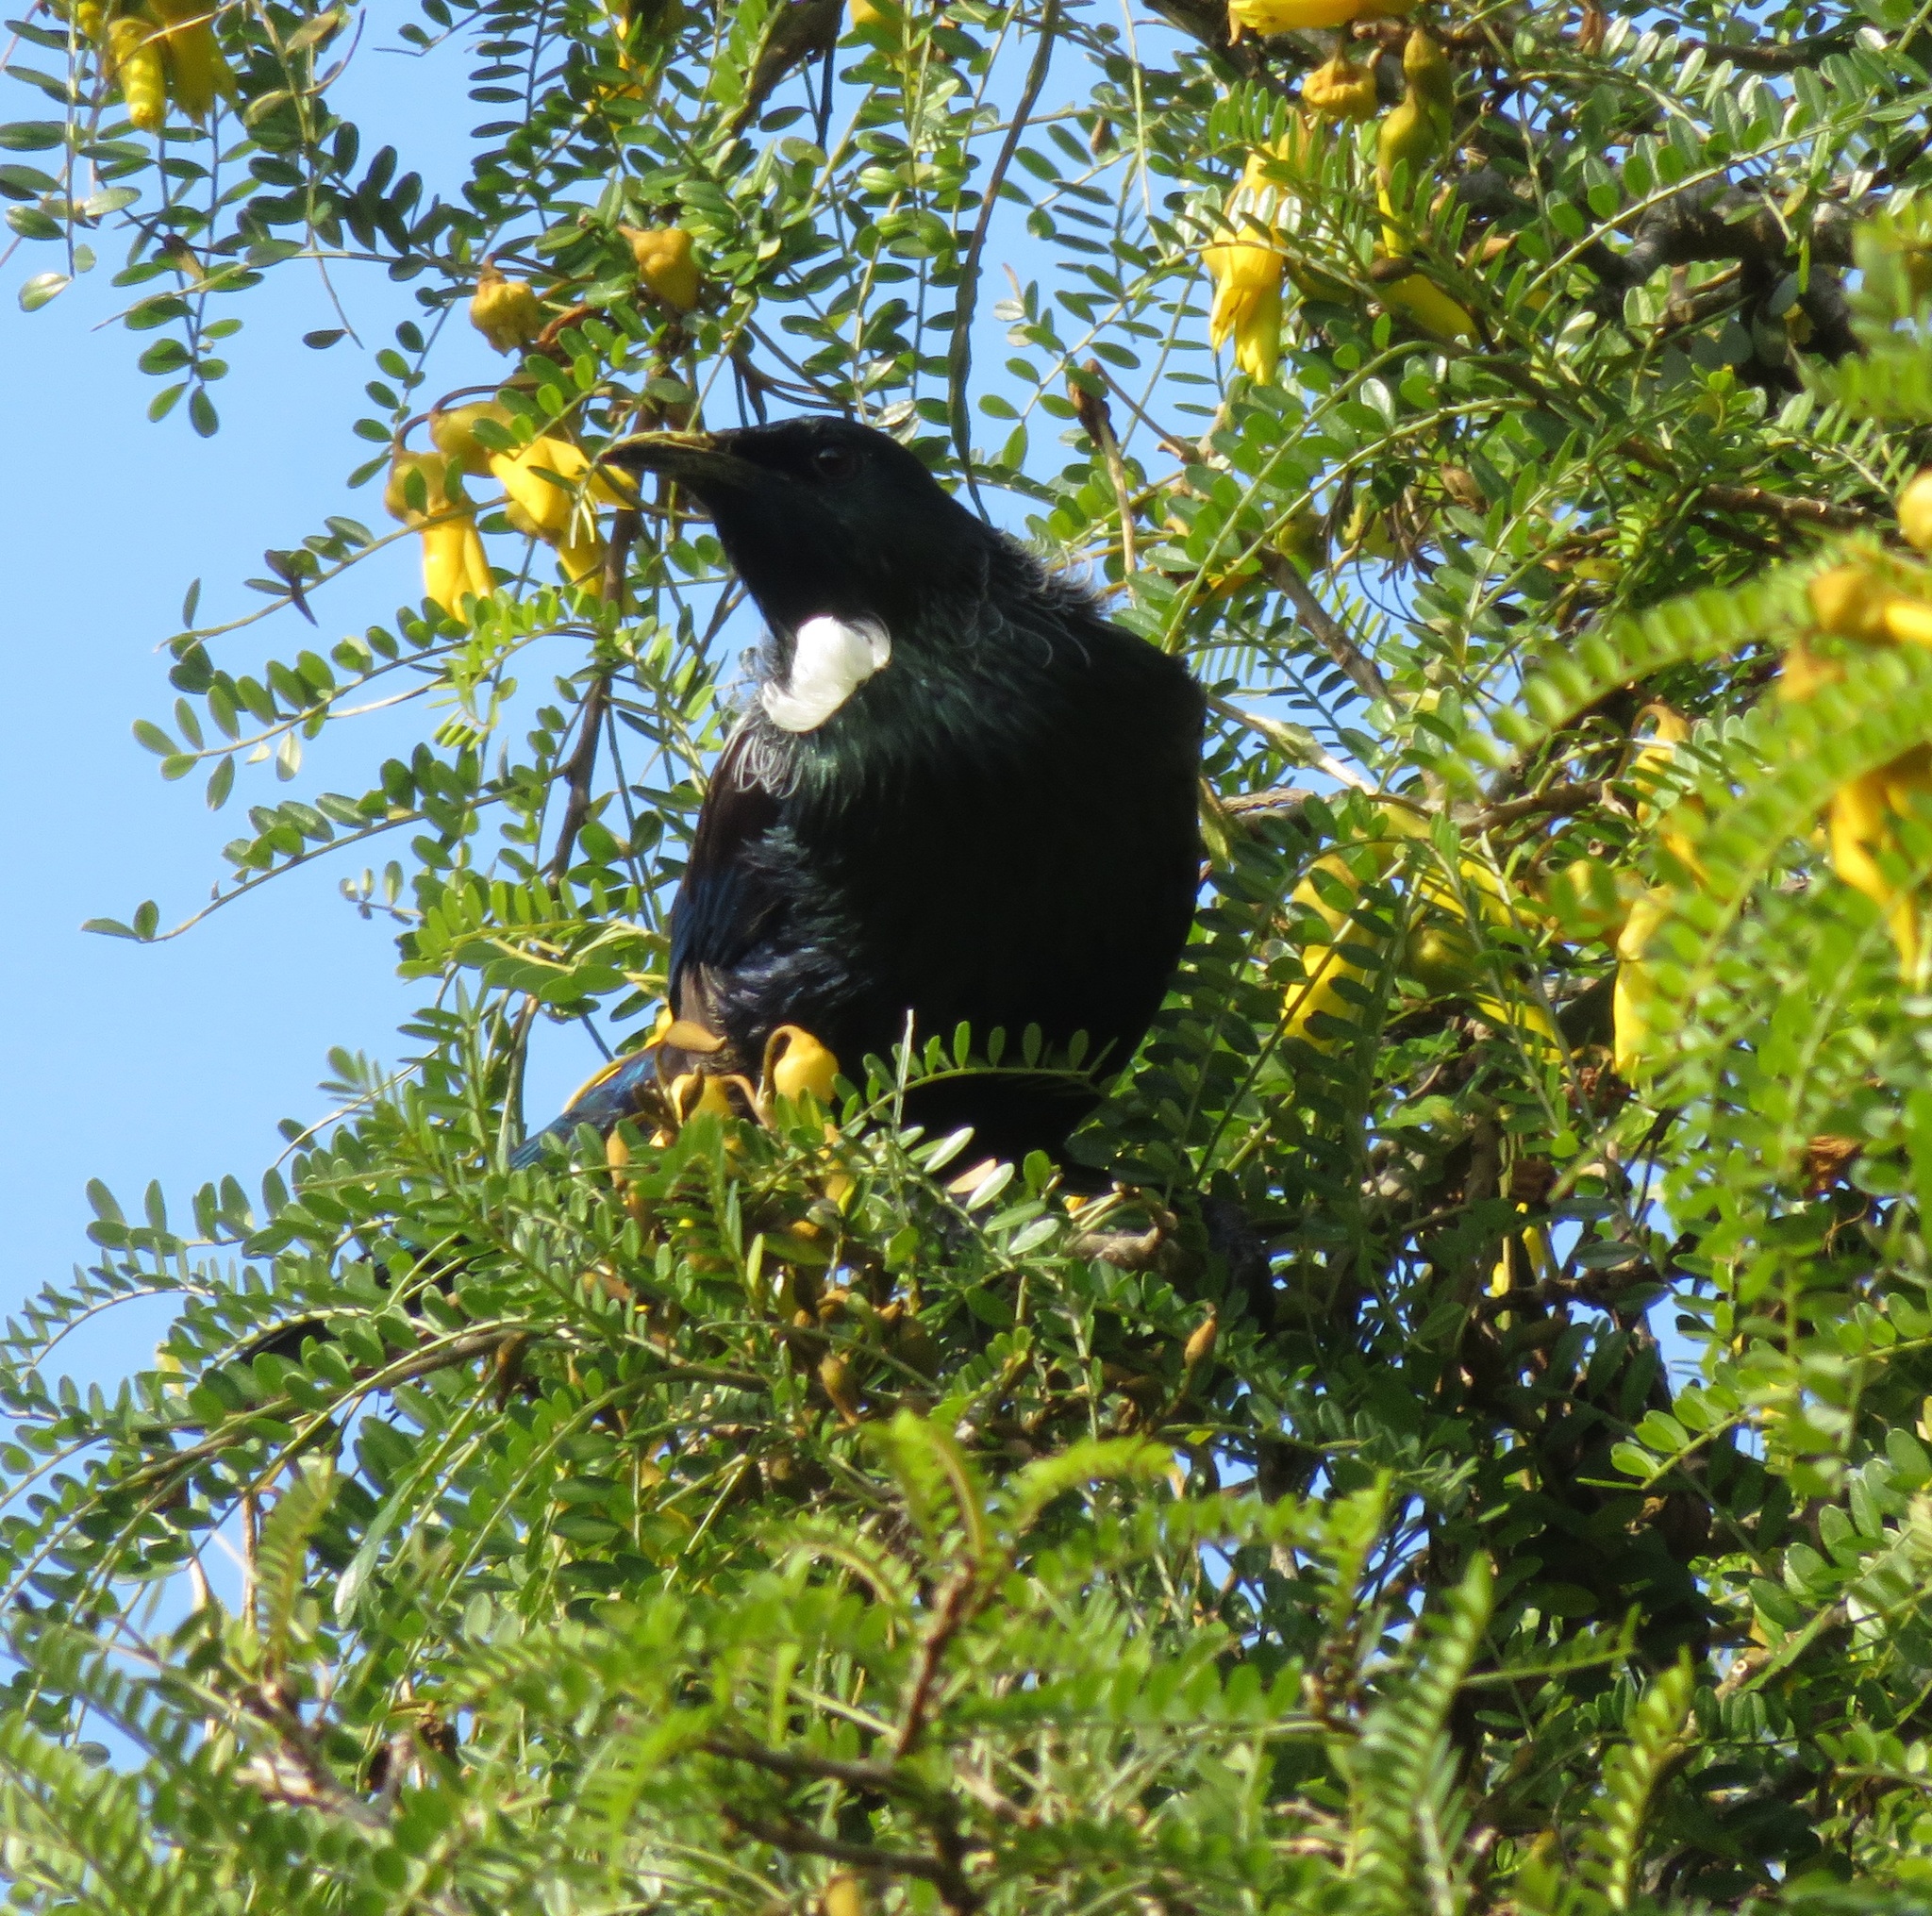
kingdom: Animalia
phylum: Chordata
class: Aves
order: Passeriformes
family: Meliphagidae
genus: Prosthemadera
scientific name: Prosthemadera novaeseelandiae
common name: Tui
